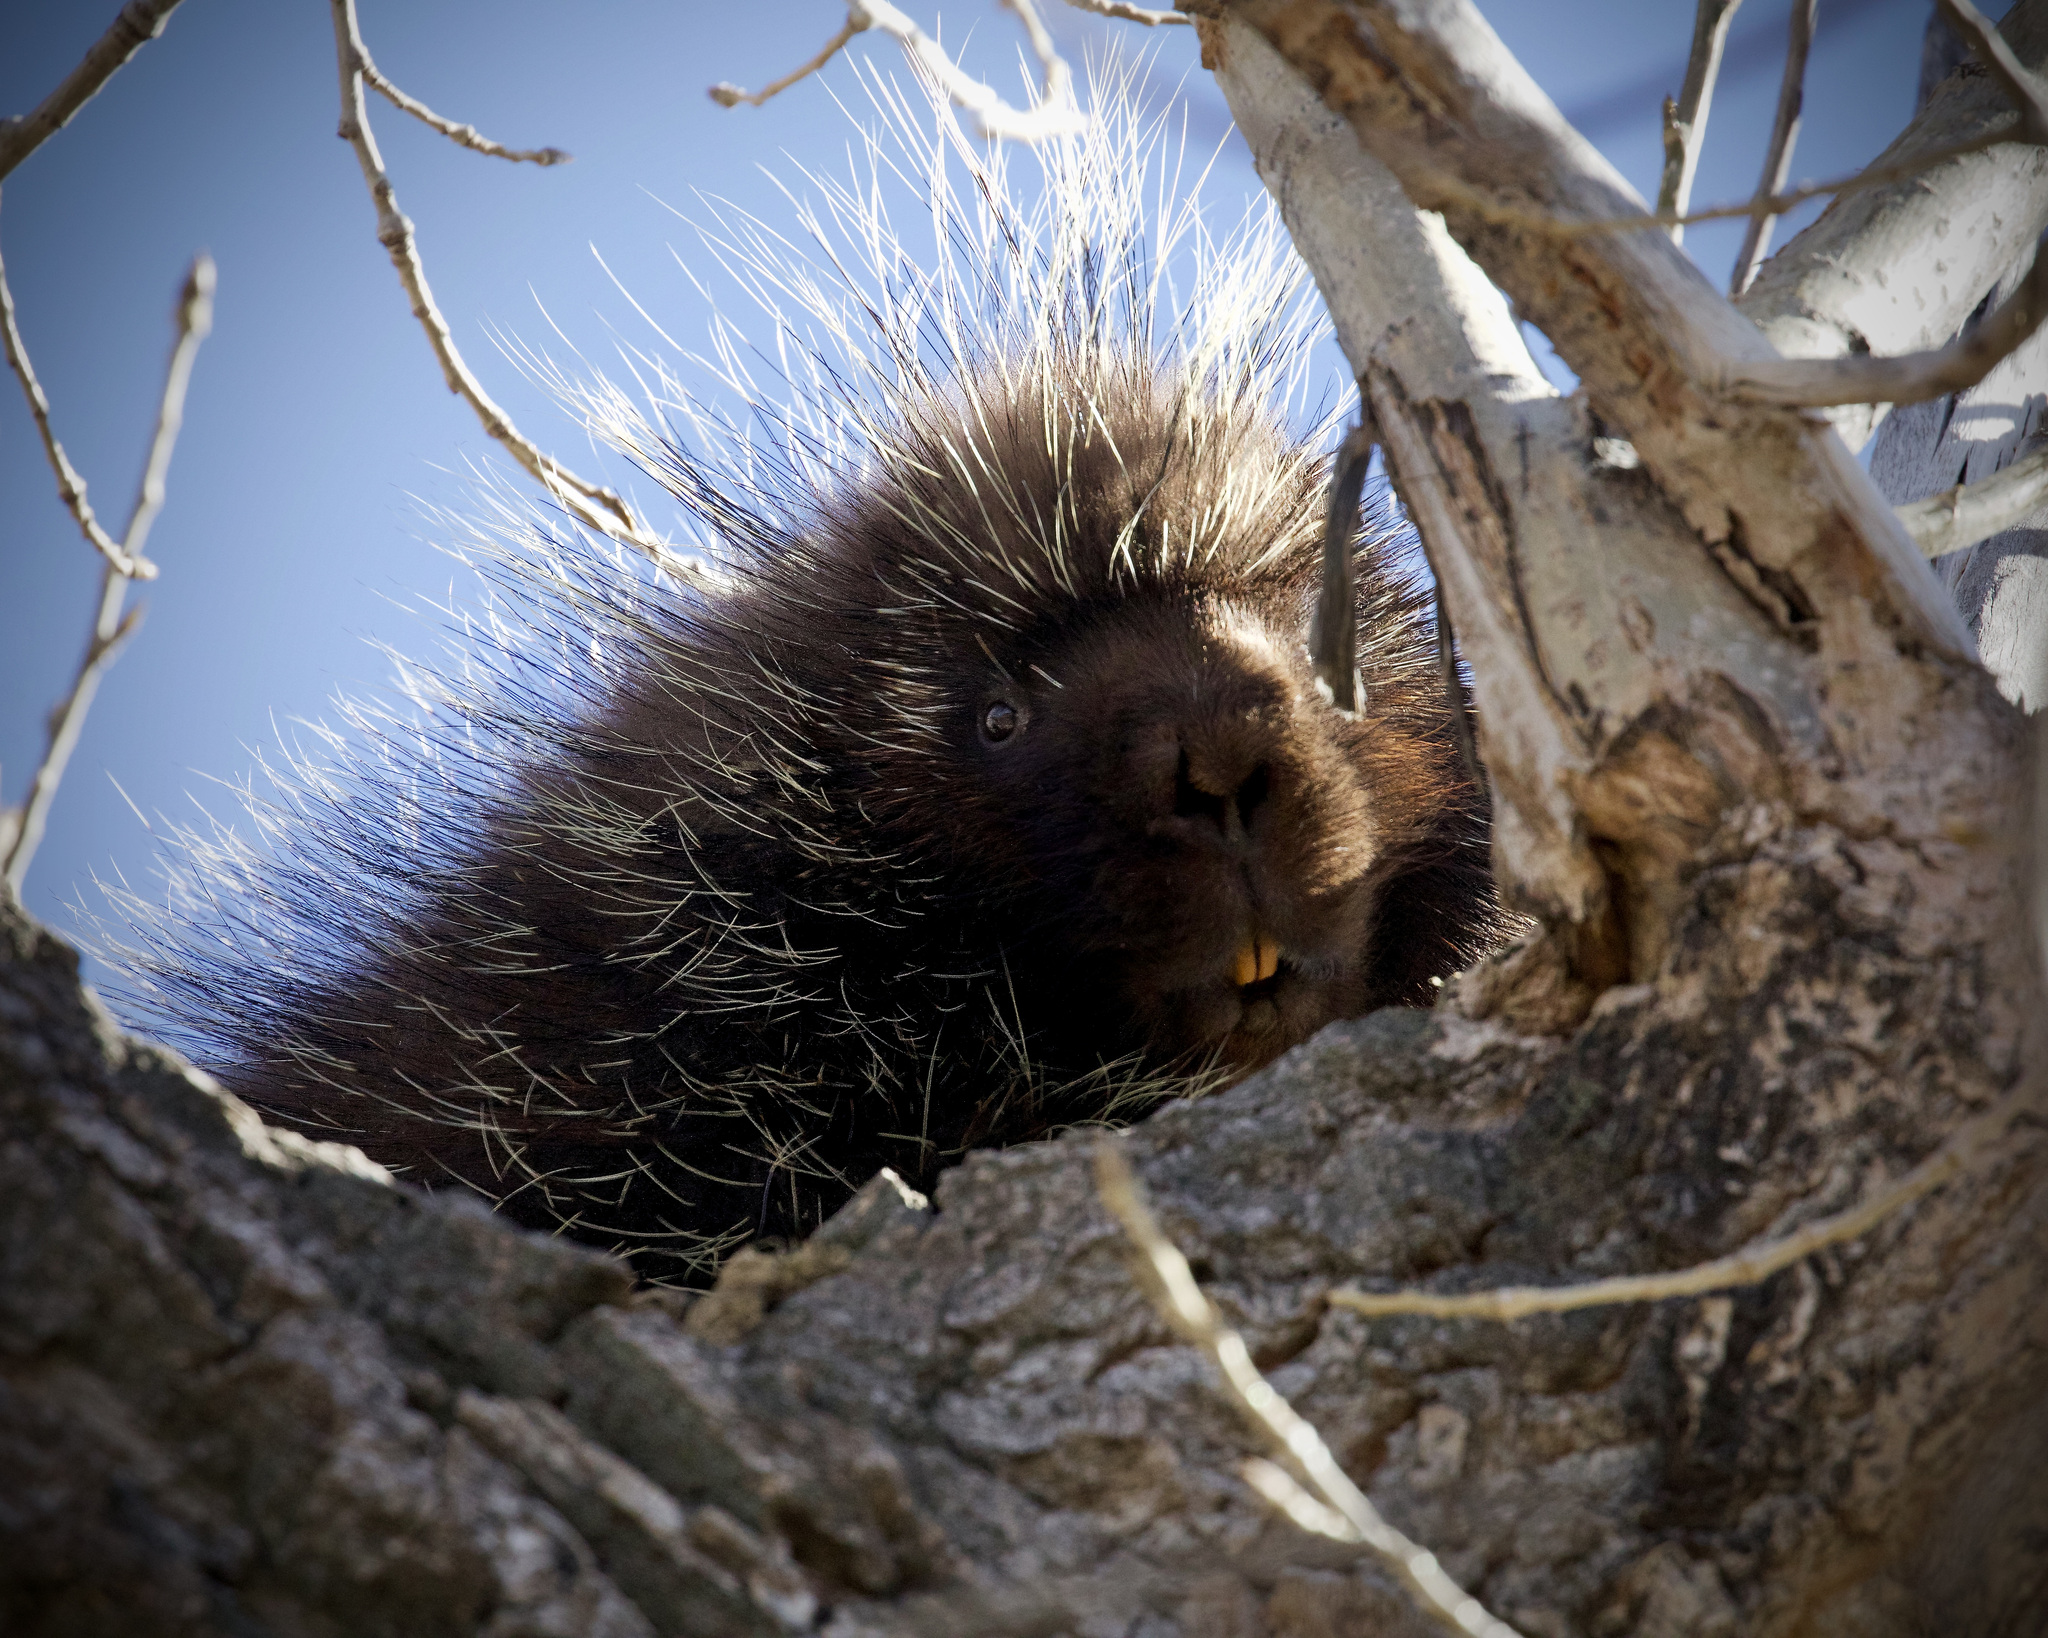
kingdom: Animalia
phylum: Chordata
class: Mammalia
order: Rodentia
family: Erethizontidae
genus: Erethizon
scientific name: Erethizon dorsatus
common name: North american porcupine
